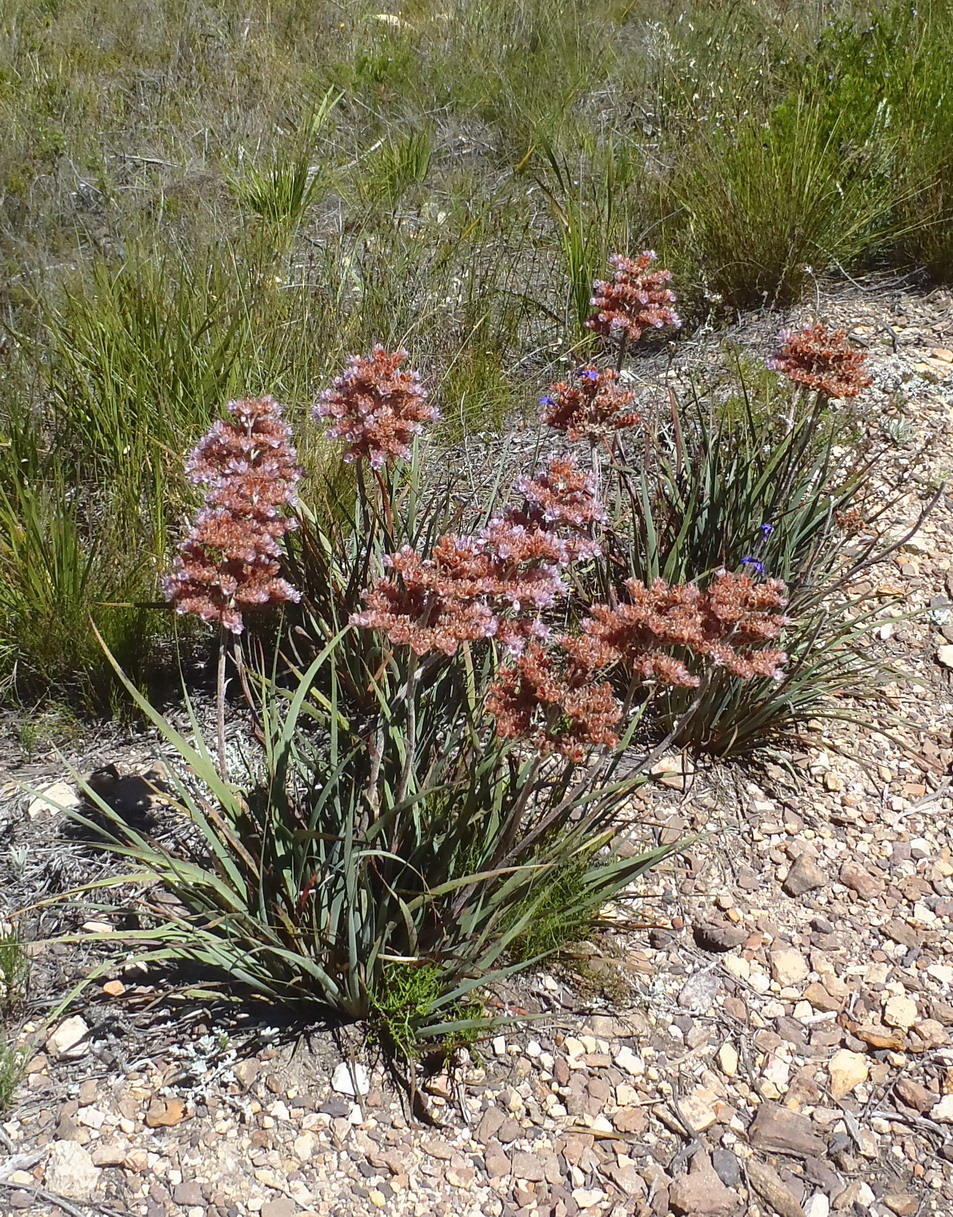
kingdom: Plantae
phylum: Tracheophyta
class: Liliopsida
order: Commelinales
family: Haemodoraceae
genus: Dilatris
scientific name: Dilatris ixioides
